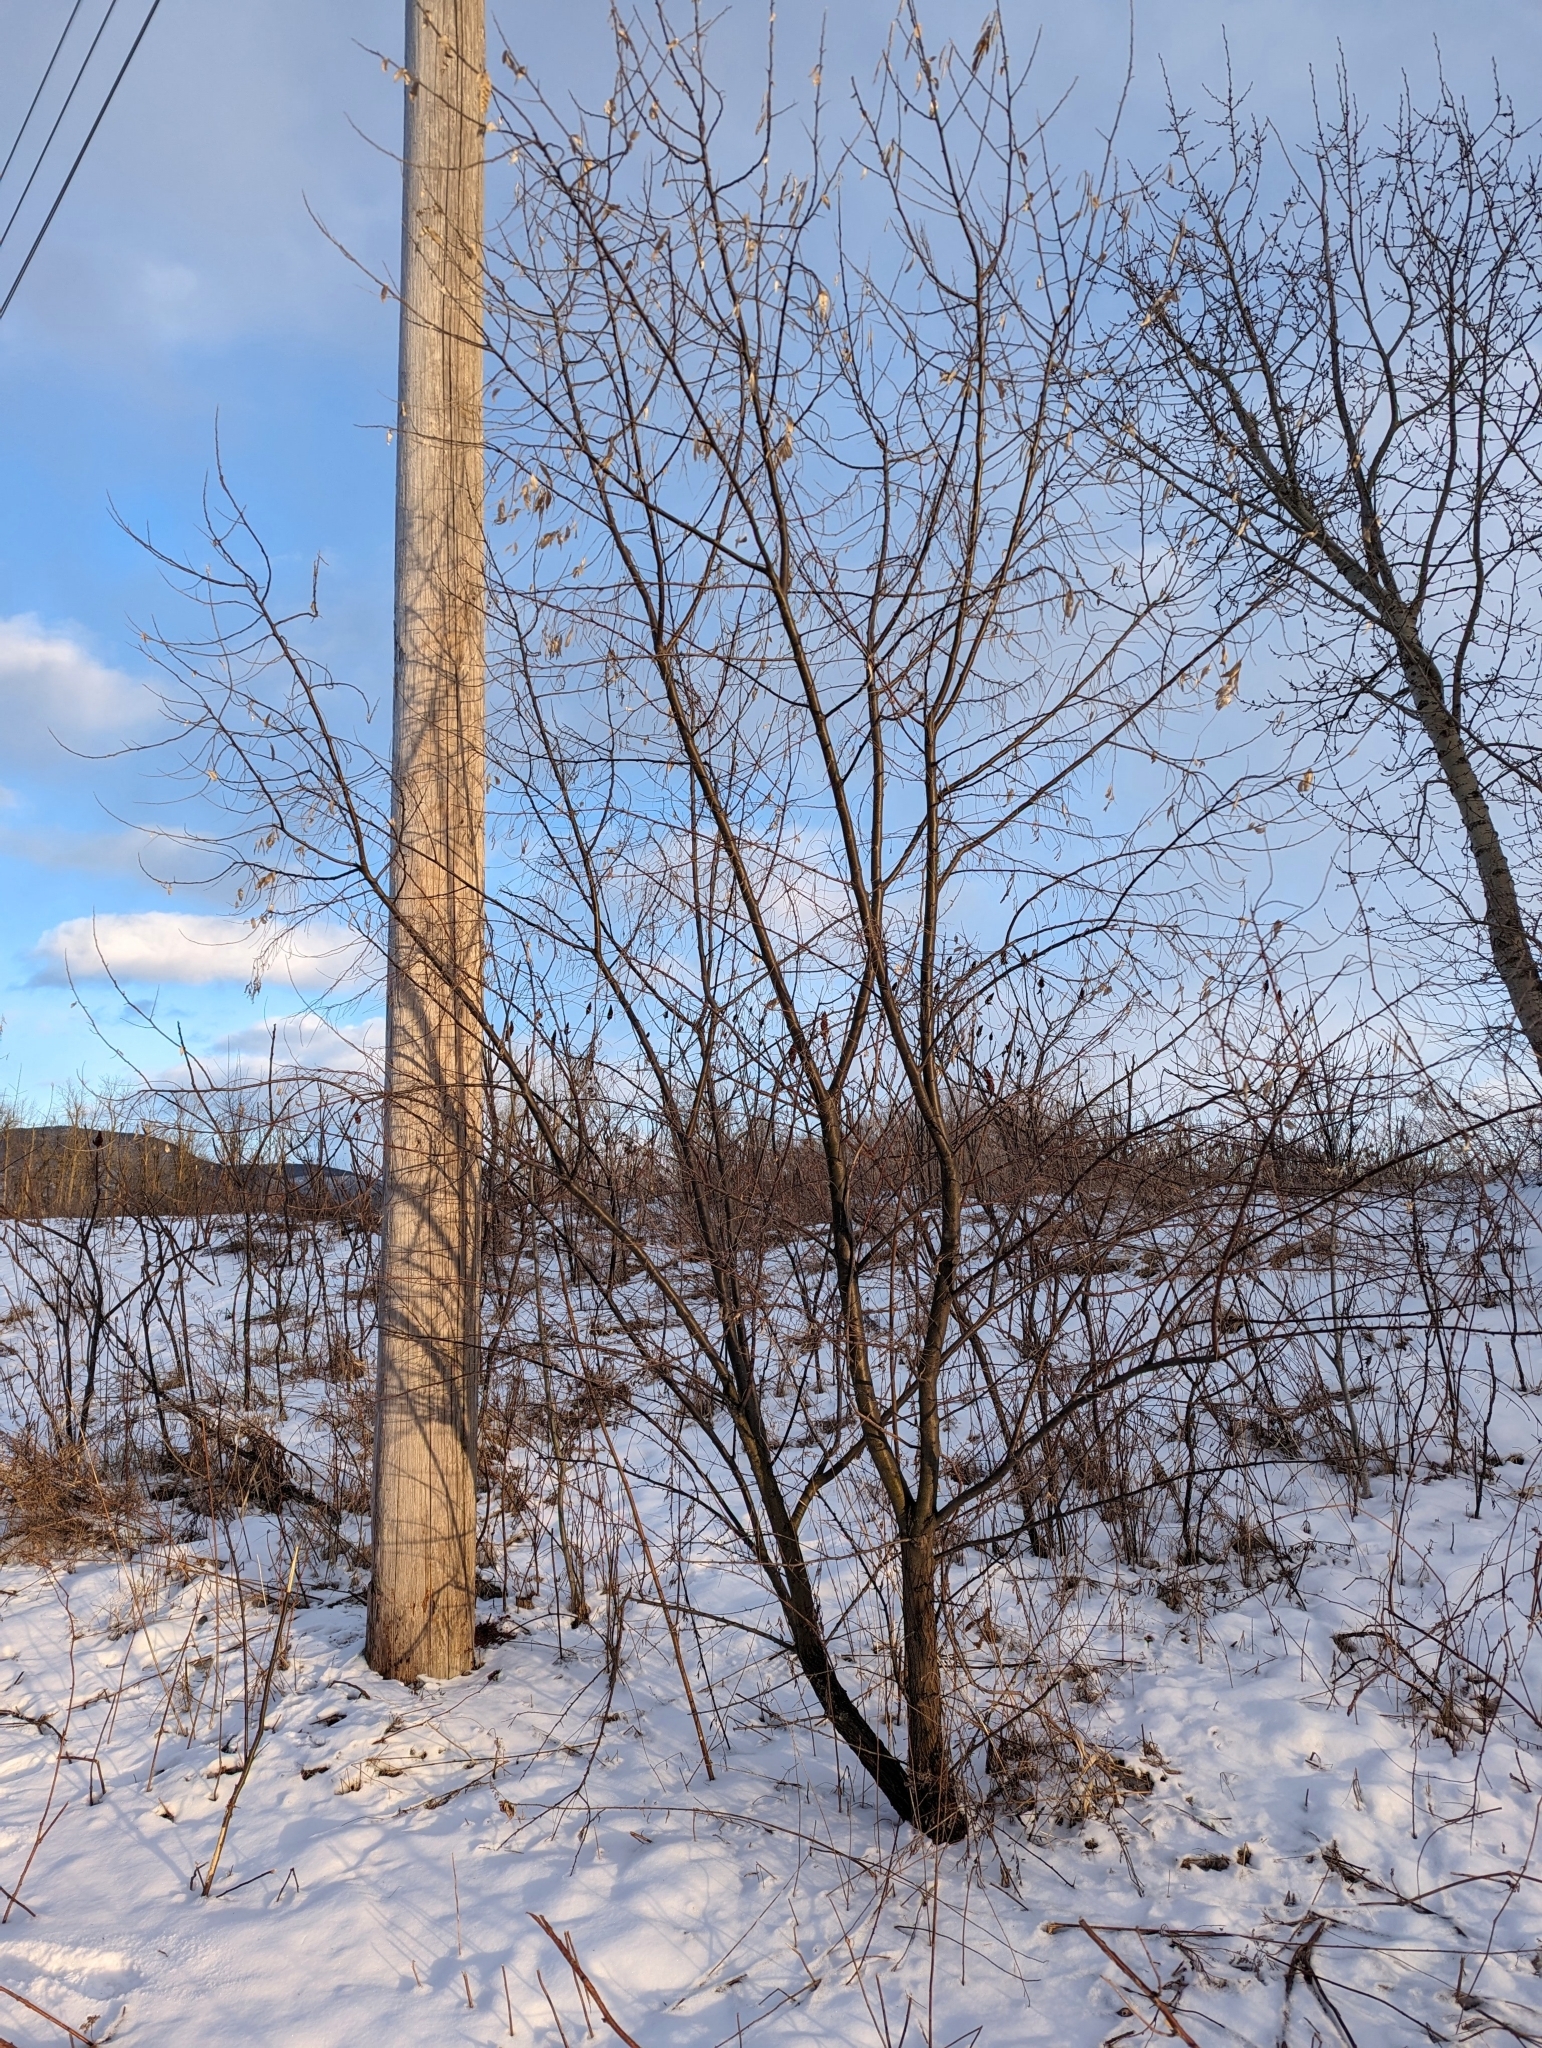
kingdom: Plantae
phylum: Tracheophyta
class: Magnoliopsida
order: Rosales
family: Elaeagnaceae
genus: Elaeagnus
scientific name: Elaeagnus angustifolia
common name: Russian olive
